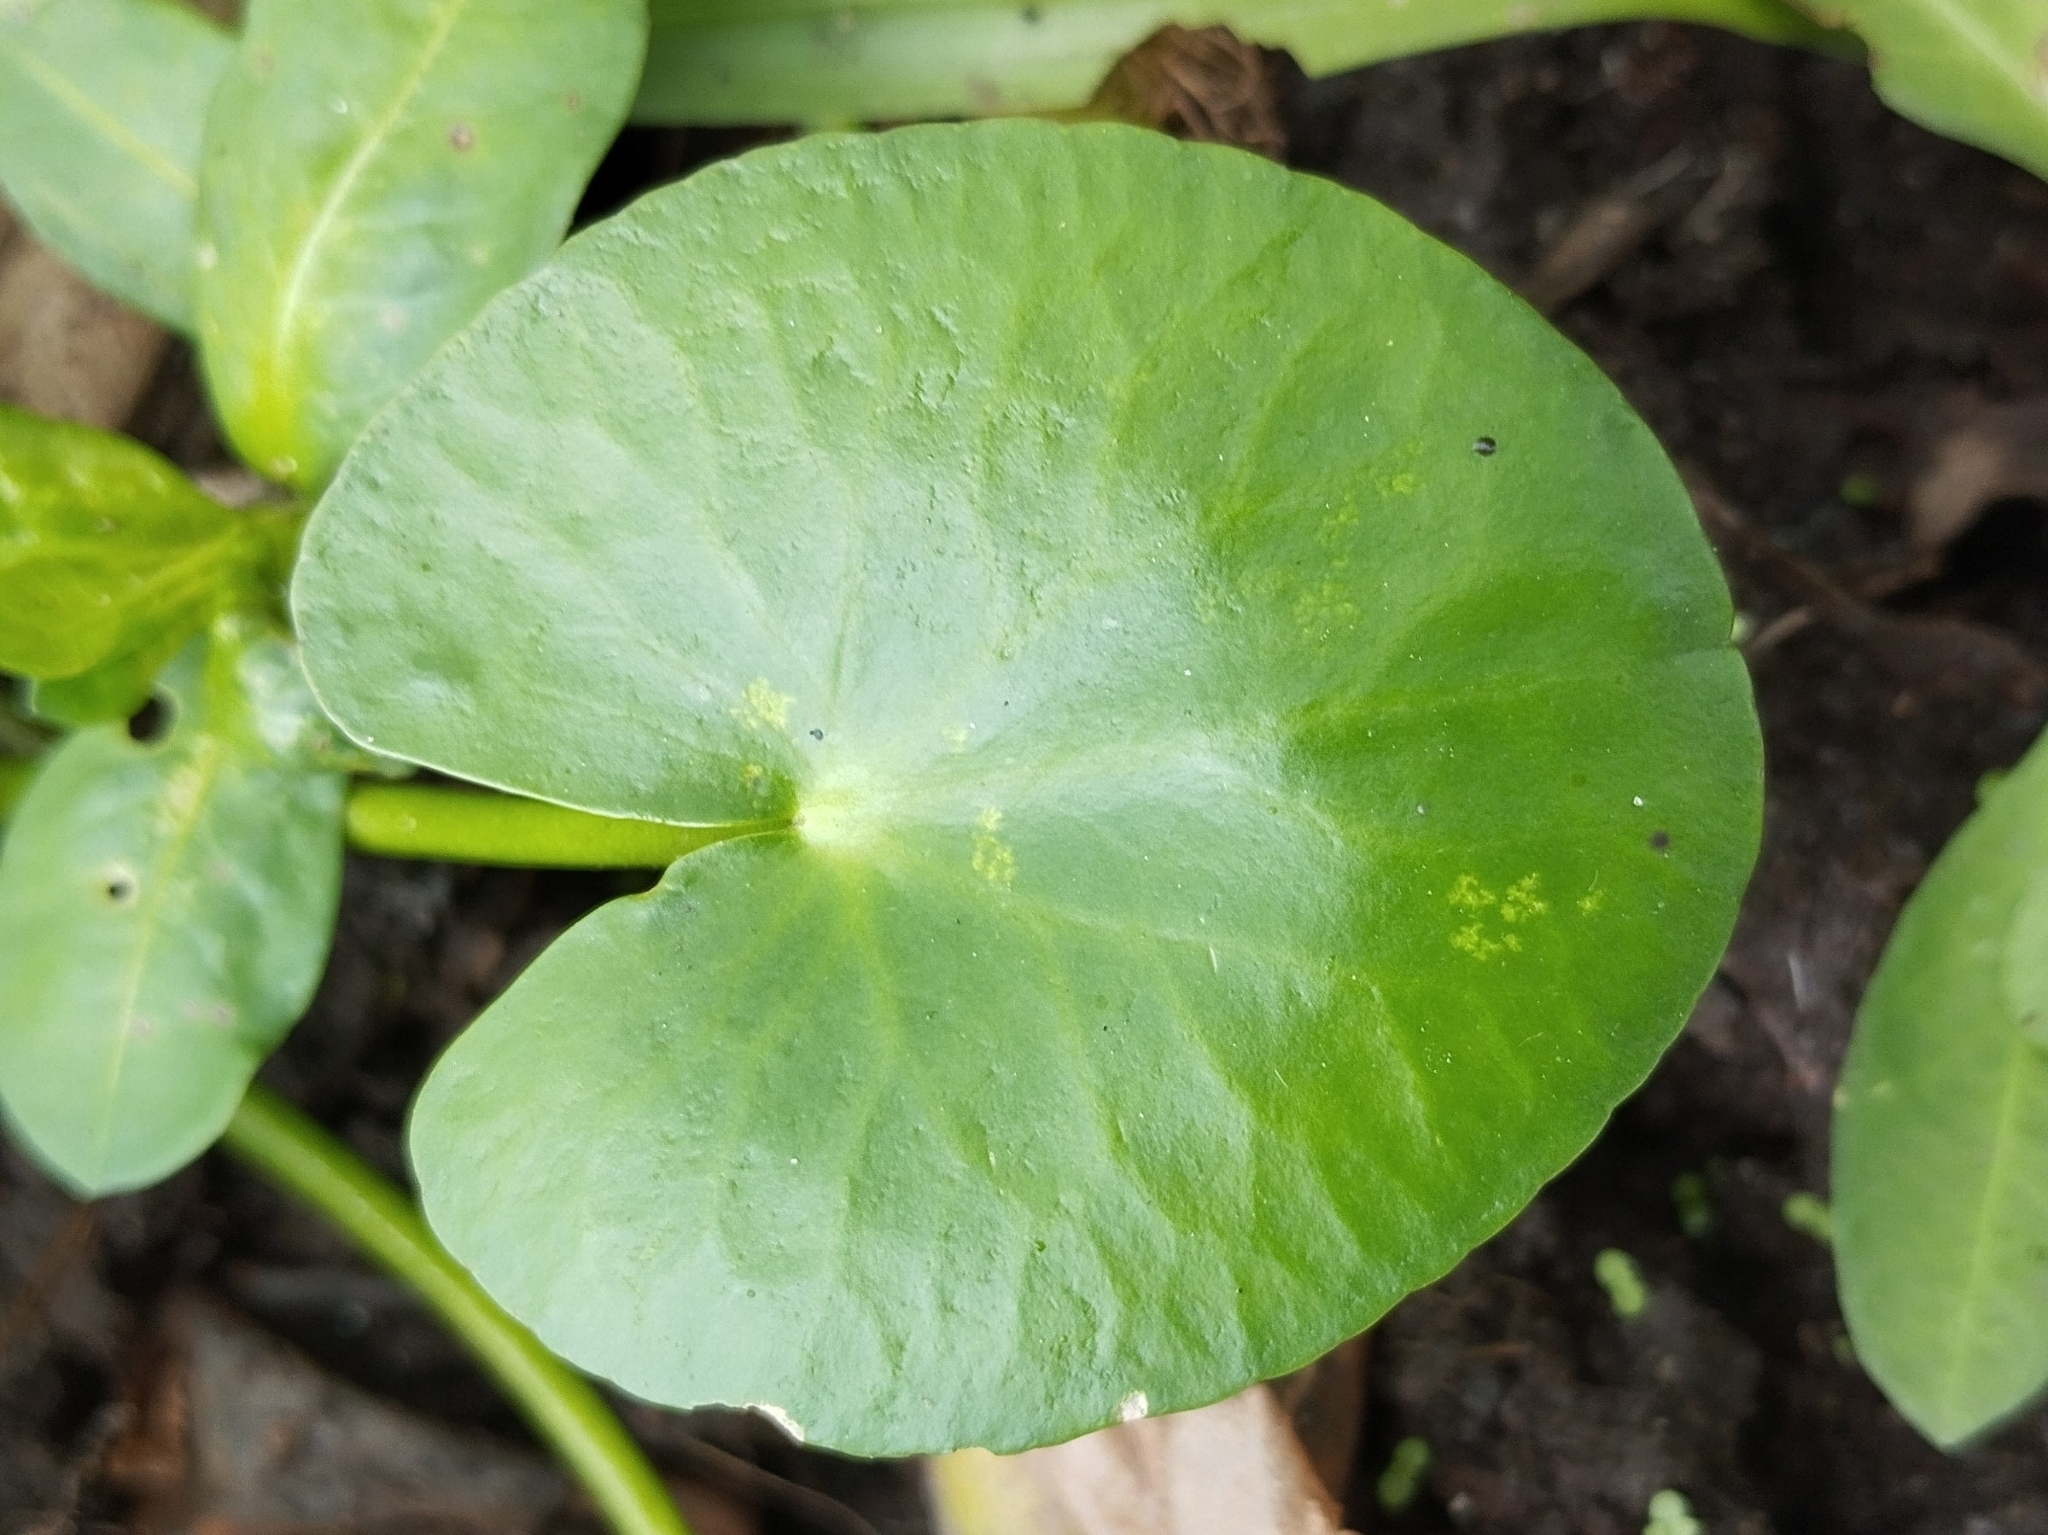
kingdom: Plantae
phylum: Tracheophyta
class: Magnoliopsida
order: Asterales
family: Menyanthaceae
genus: Nymphoides
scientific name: Nymphoides humboldtiana
